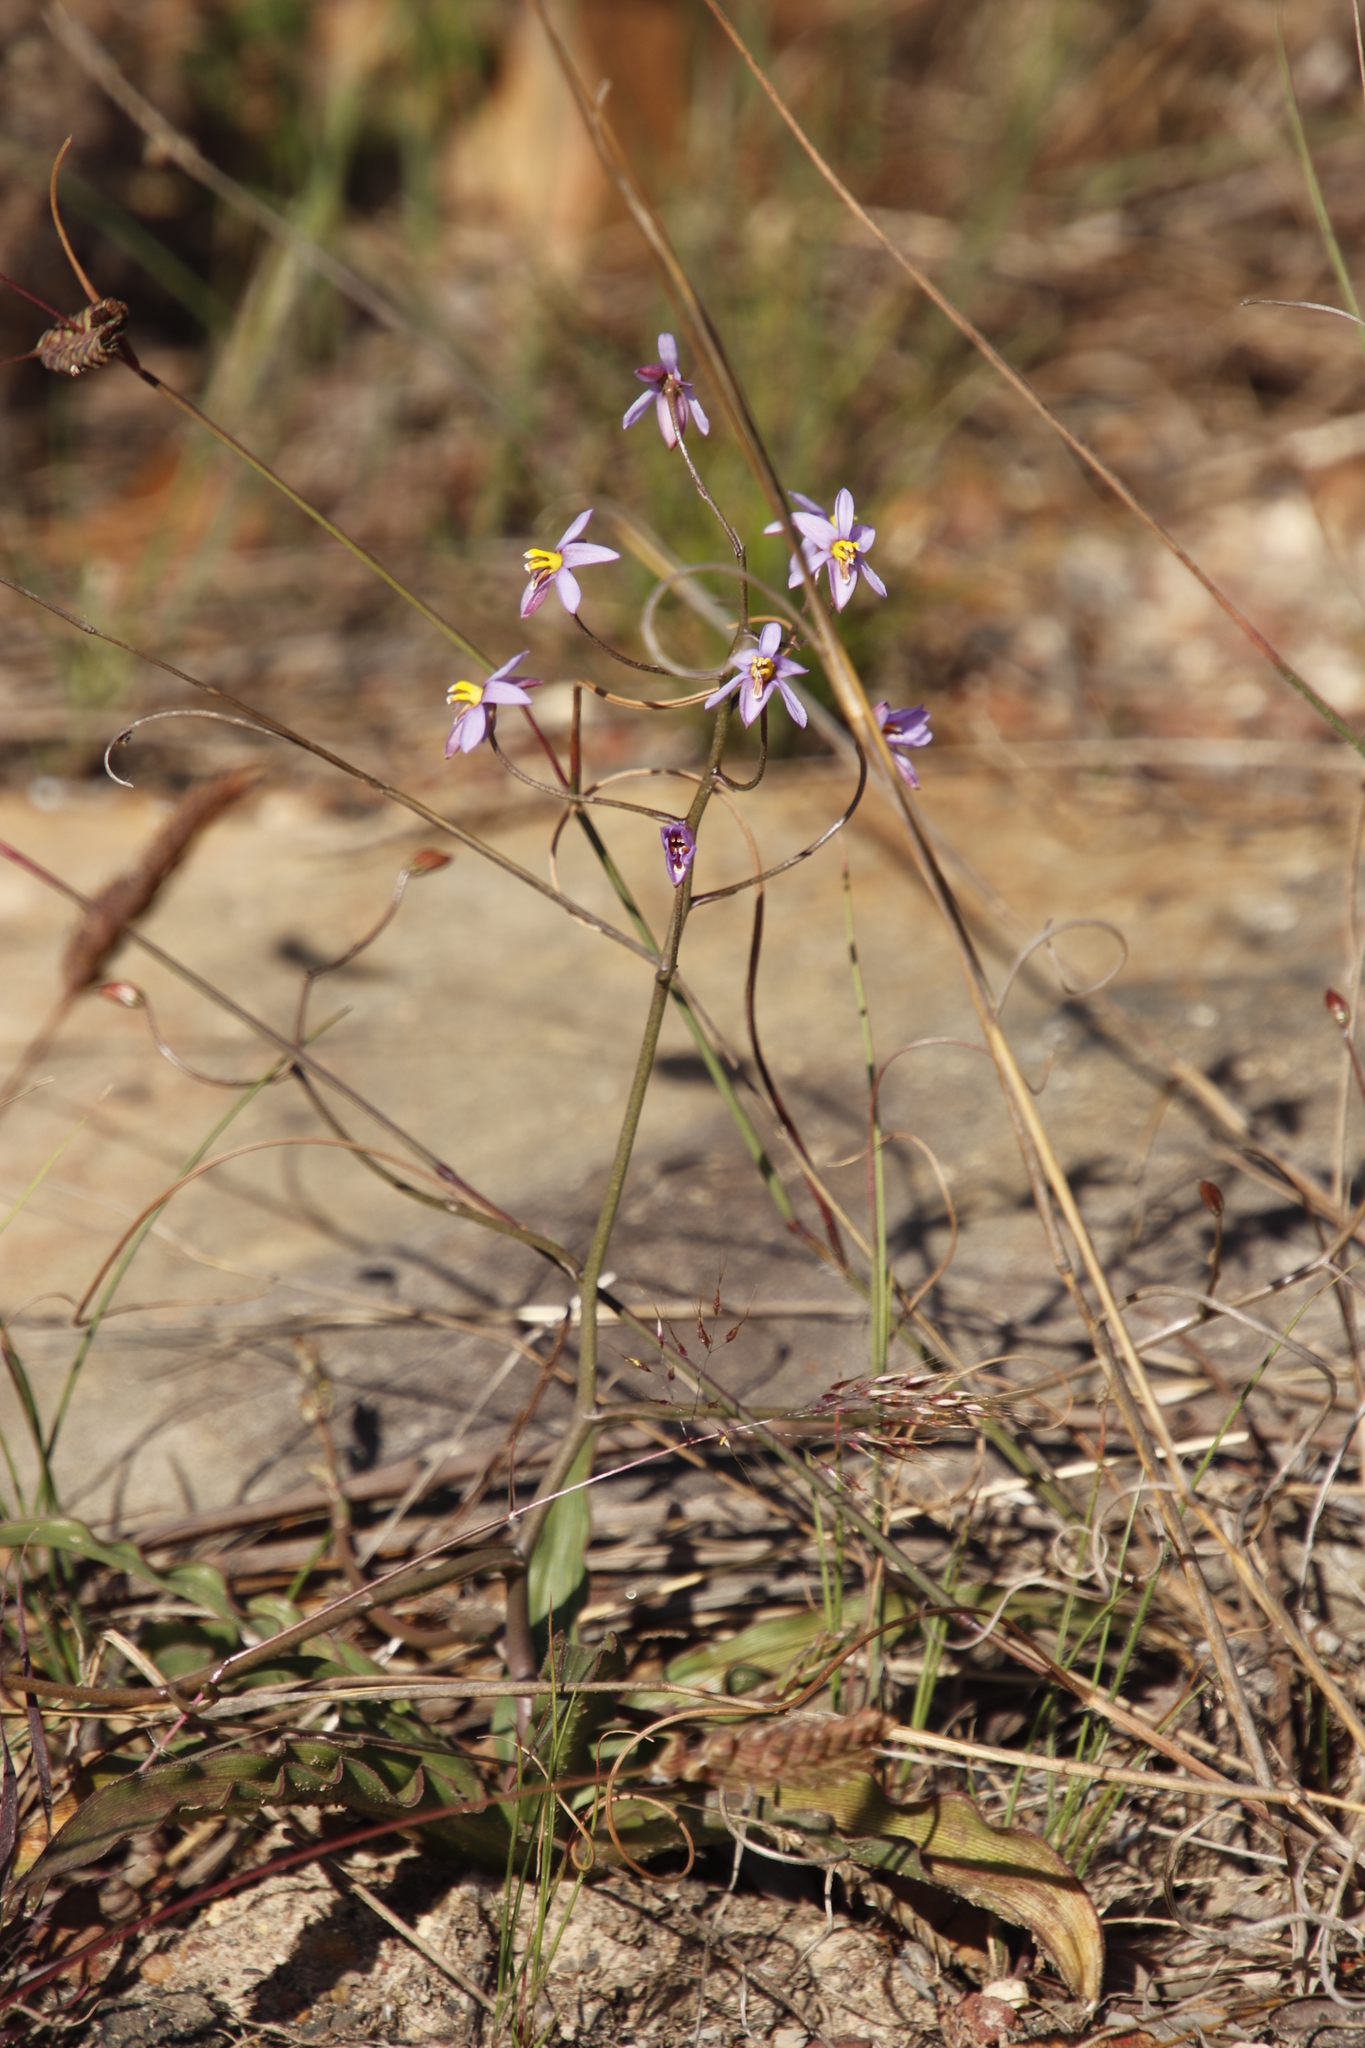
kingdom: Plantae
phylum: Tracheophyta
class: Liliopsida
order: Asparagales
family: Tecophilaeaceae
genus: Cyanella
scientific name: Cyanella hyacinthoides
